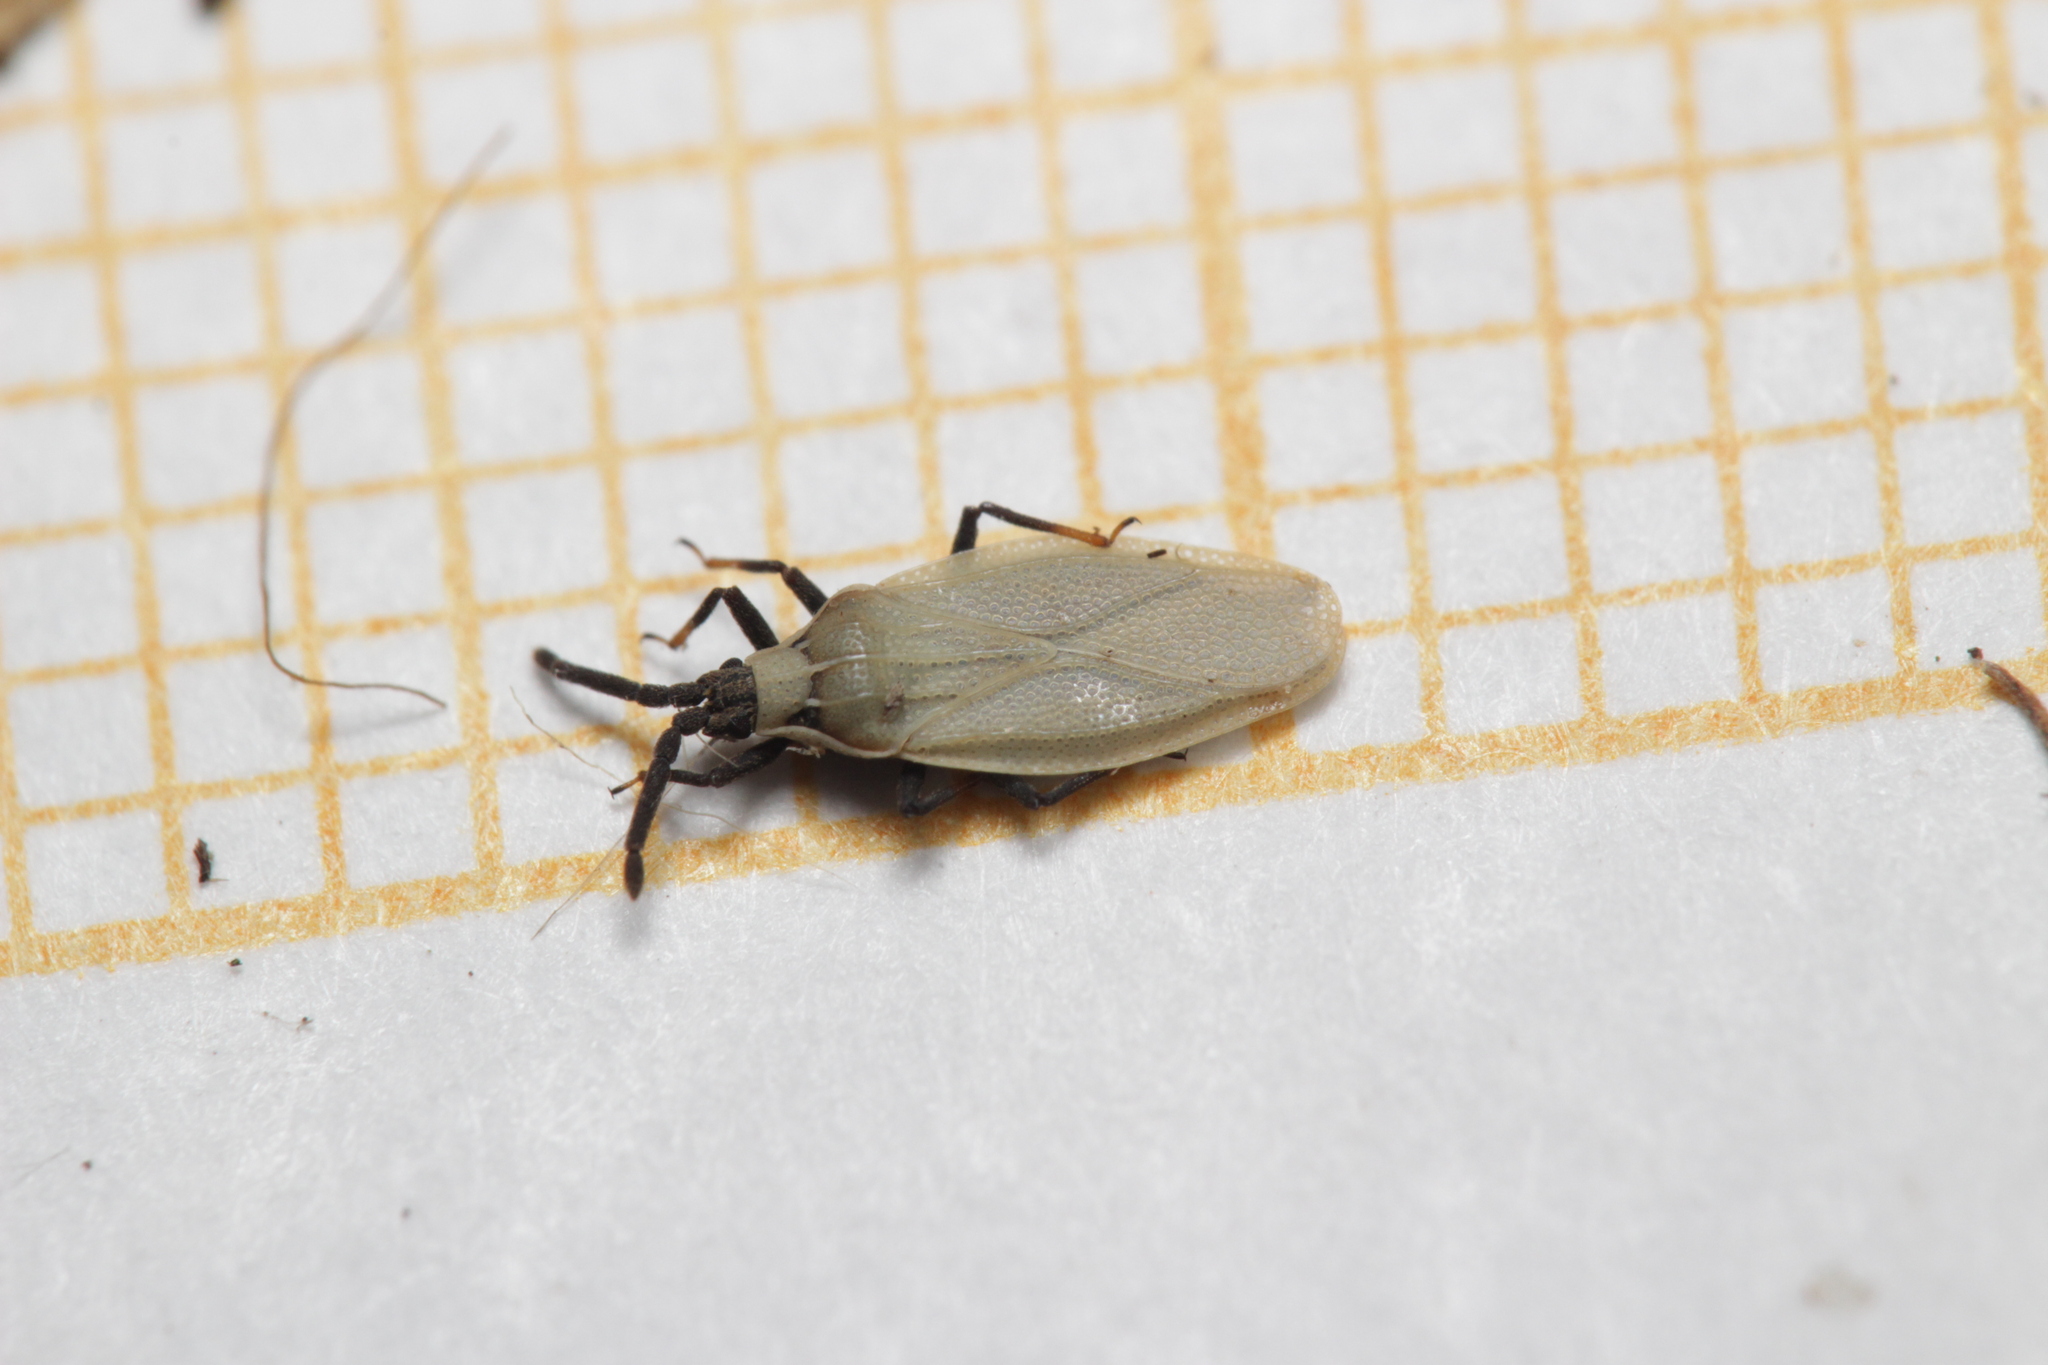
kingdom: Animalia
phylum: Arthropoda
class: Insecta
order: Hemiptera
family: Tingidae
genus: Catoplatus
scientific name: Catoplatus carthusianus
